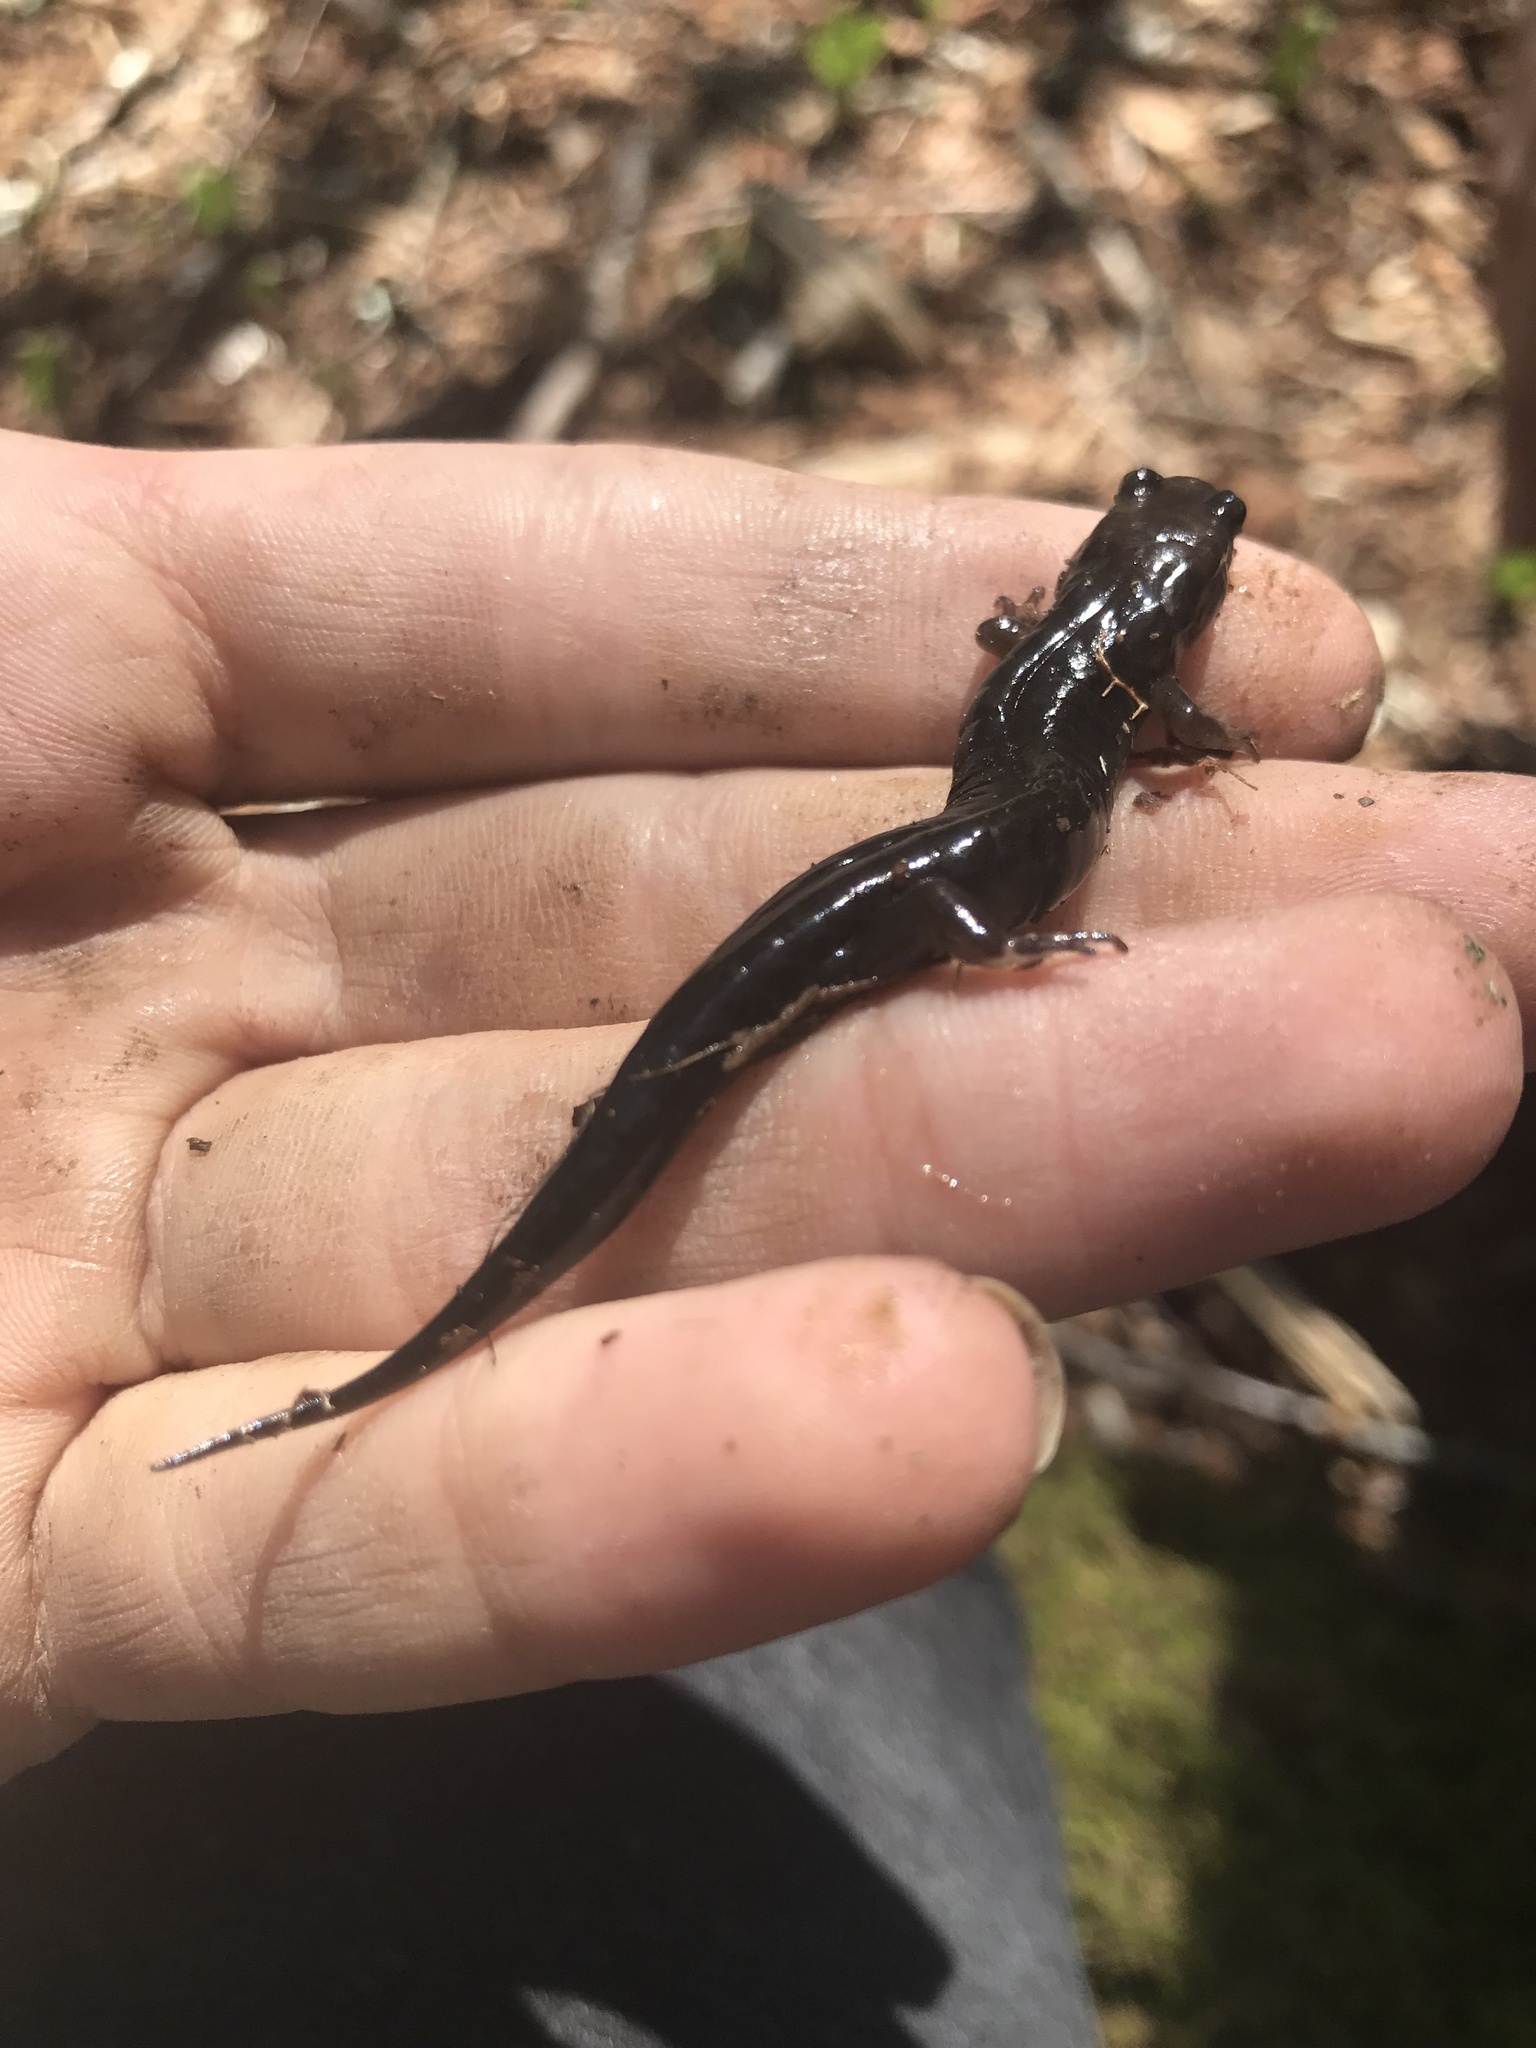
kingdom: Animalia
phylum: Chordata
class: Amphibia
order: Caudata
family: Plethodontidae
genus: Desmognathus
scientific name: Desmognathus imitator
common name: Imitator salamander
